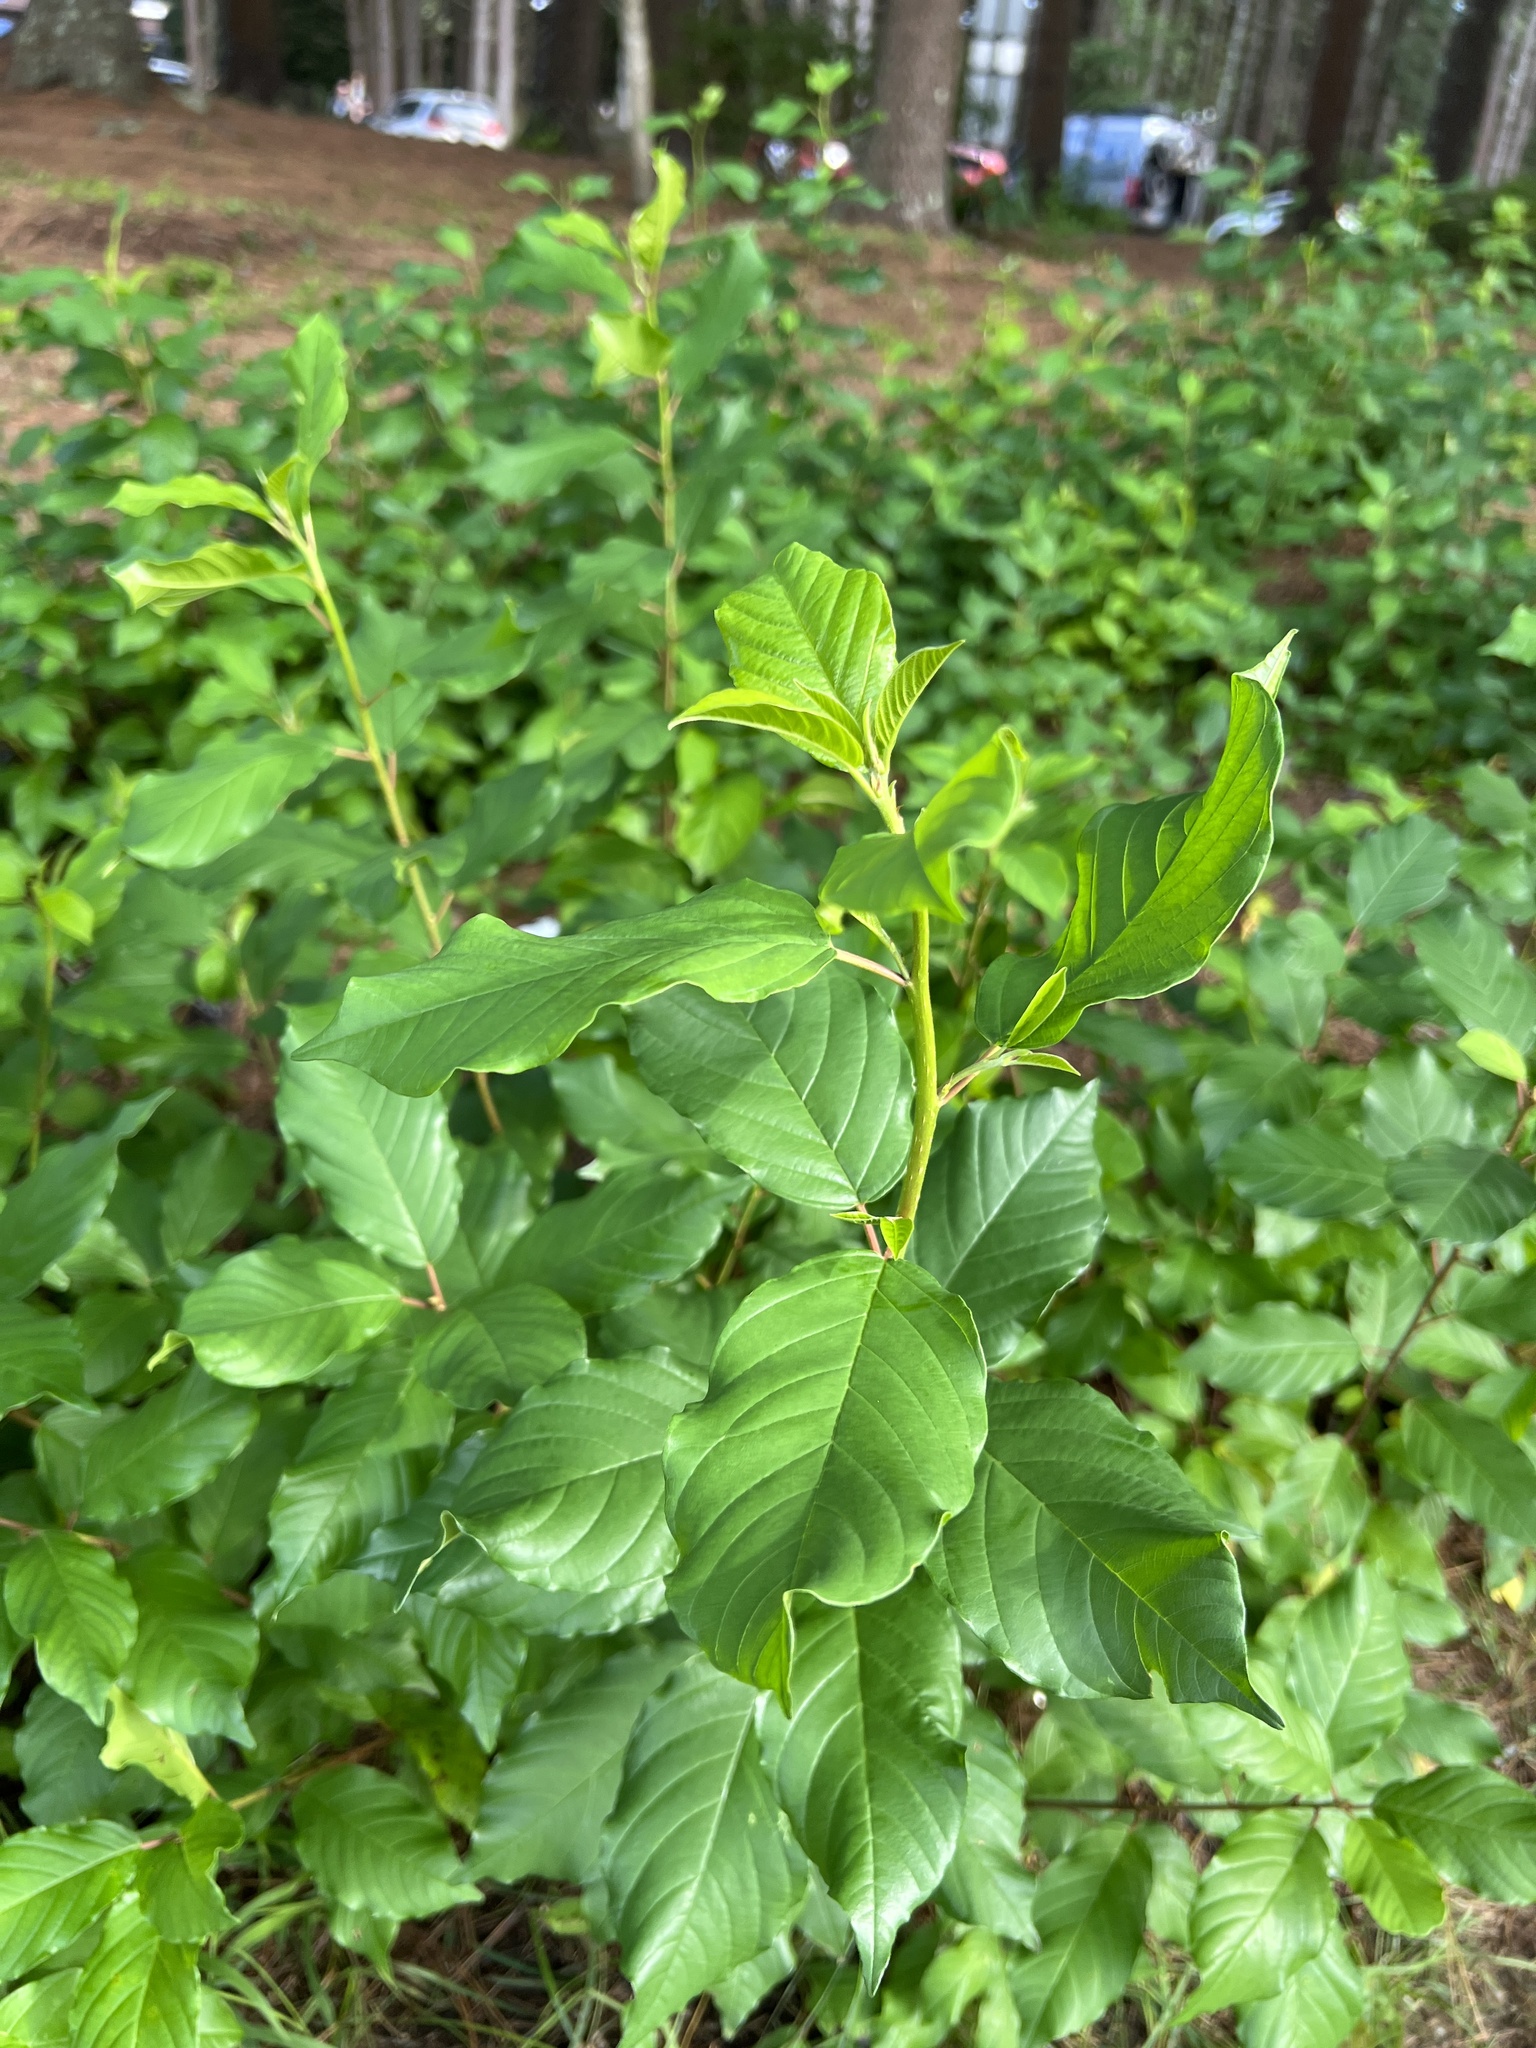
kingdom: Plantae
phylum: Tracheophyta
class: Magnoliopsida
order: Rosales
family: Rhamnaceae
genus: Frangula
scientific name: Frangula alnus
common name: Alder buckthorn
